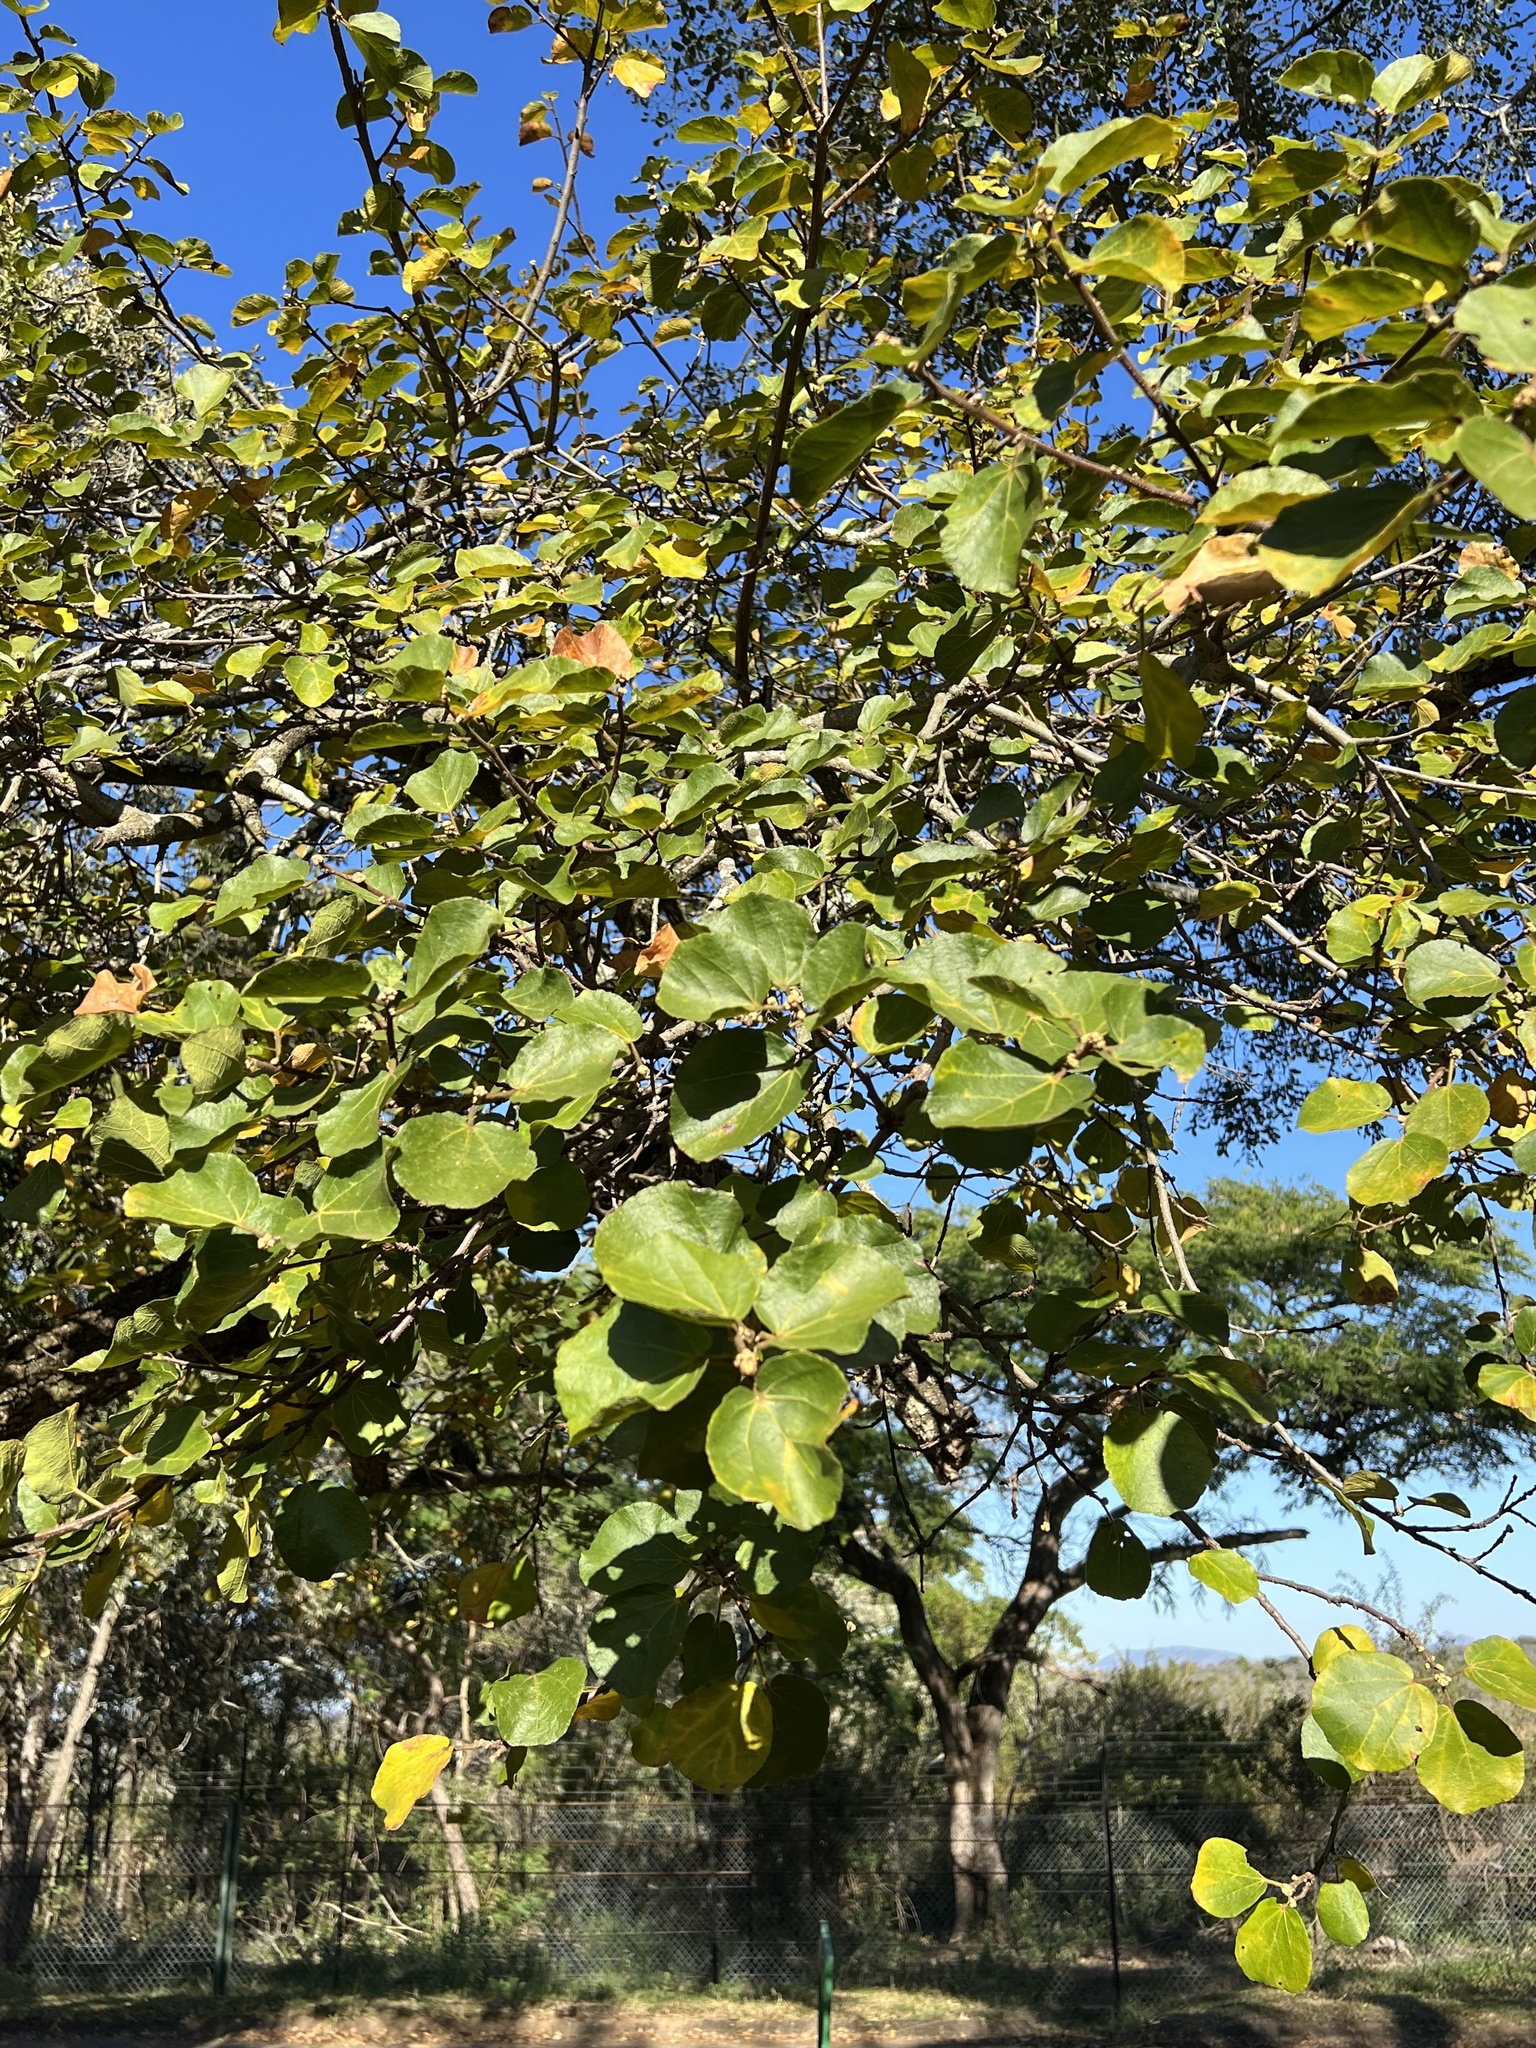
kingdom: Plantae
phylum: Tracheophyta
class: Magnoliopsida
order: Malvales
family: Malvaceae
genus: Dombeya
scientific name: Dombeya rotundifolia
